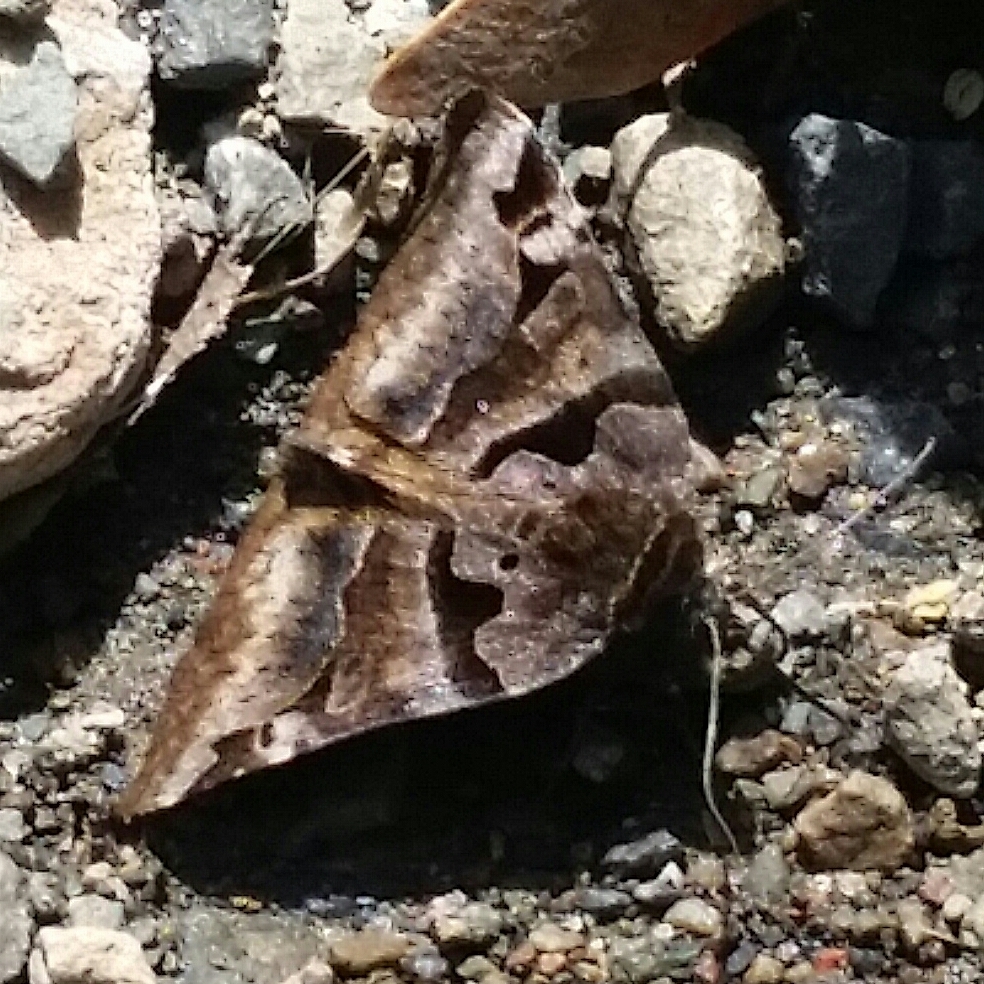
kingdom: Animalia
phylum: Arthropoda
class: Insecta
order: Lepidoptera
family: Erebidae
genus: Euclidia
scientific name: Euclidia ardita
